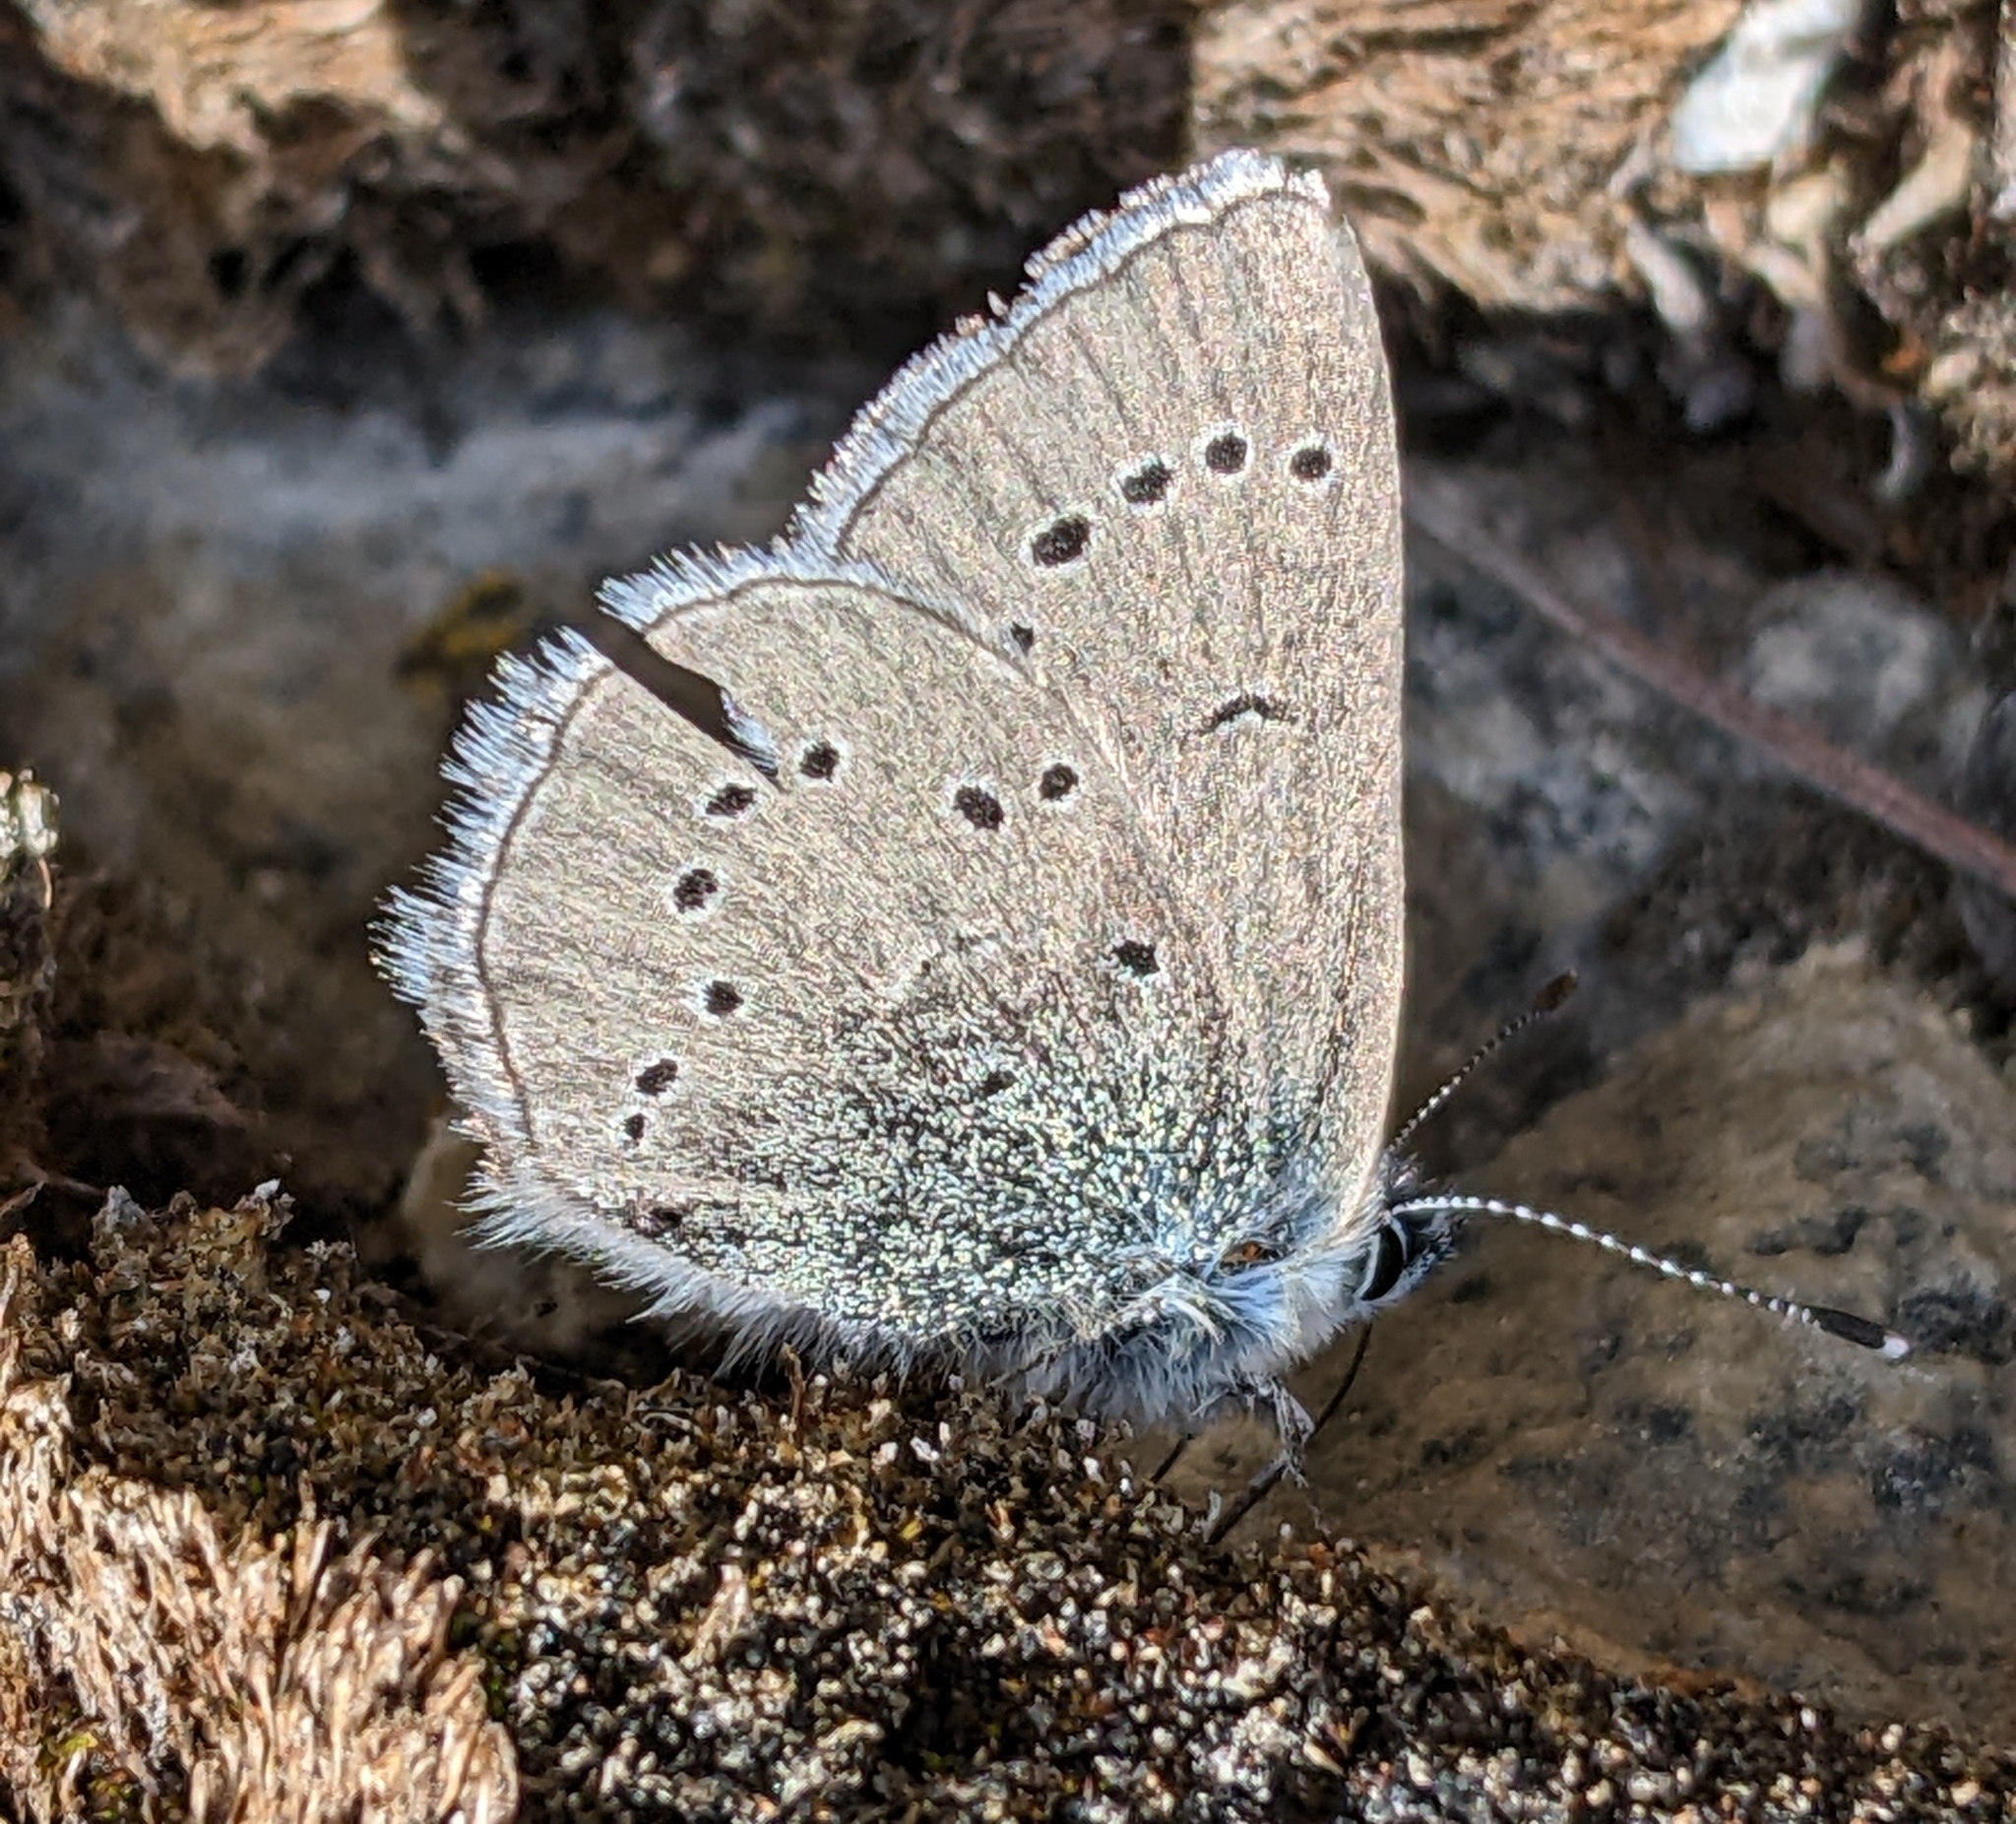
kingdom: Animalia
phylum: Arthropoda
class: Insecta
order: Lepidoptera
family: Lycaenidae
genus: Glaucopsyche
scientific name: Glaucopsyche lygdamus
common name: Silvery blue
